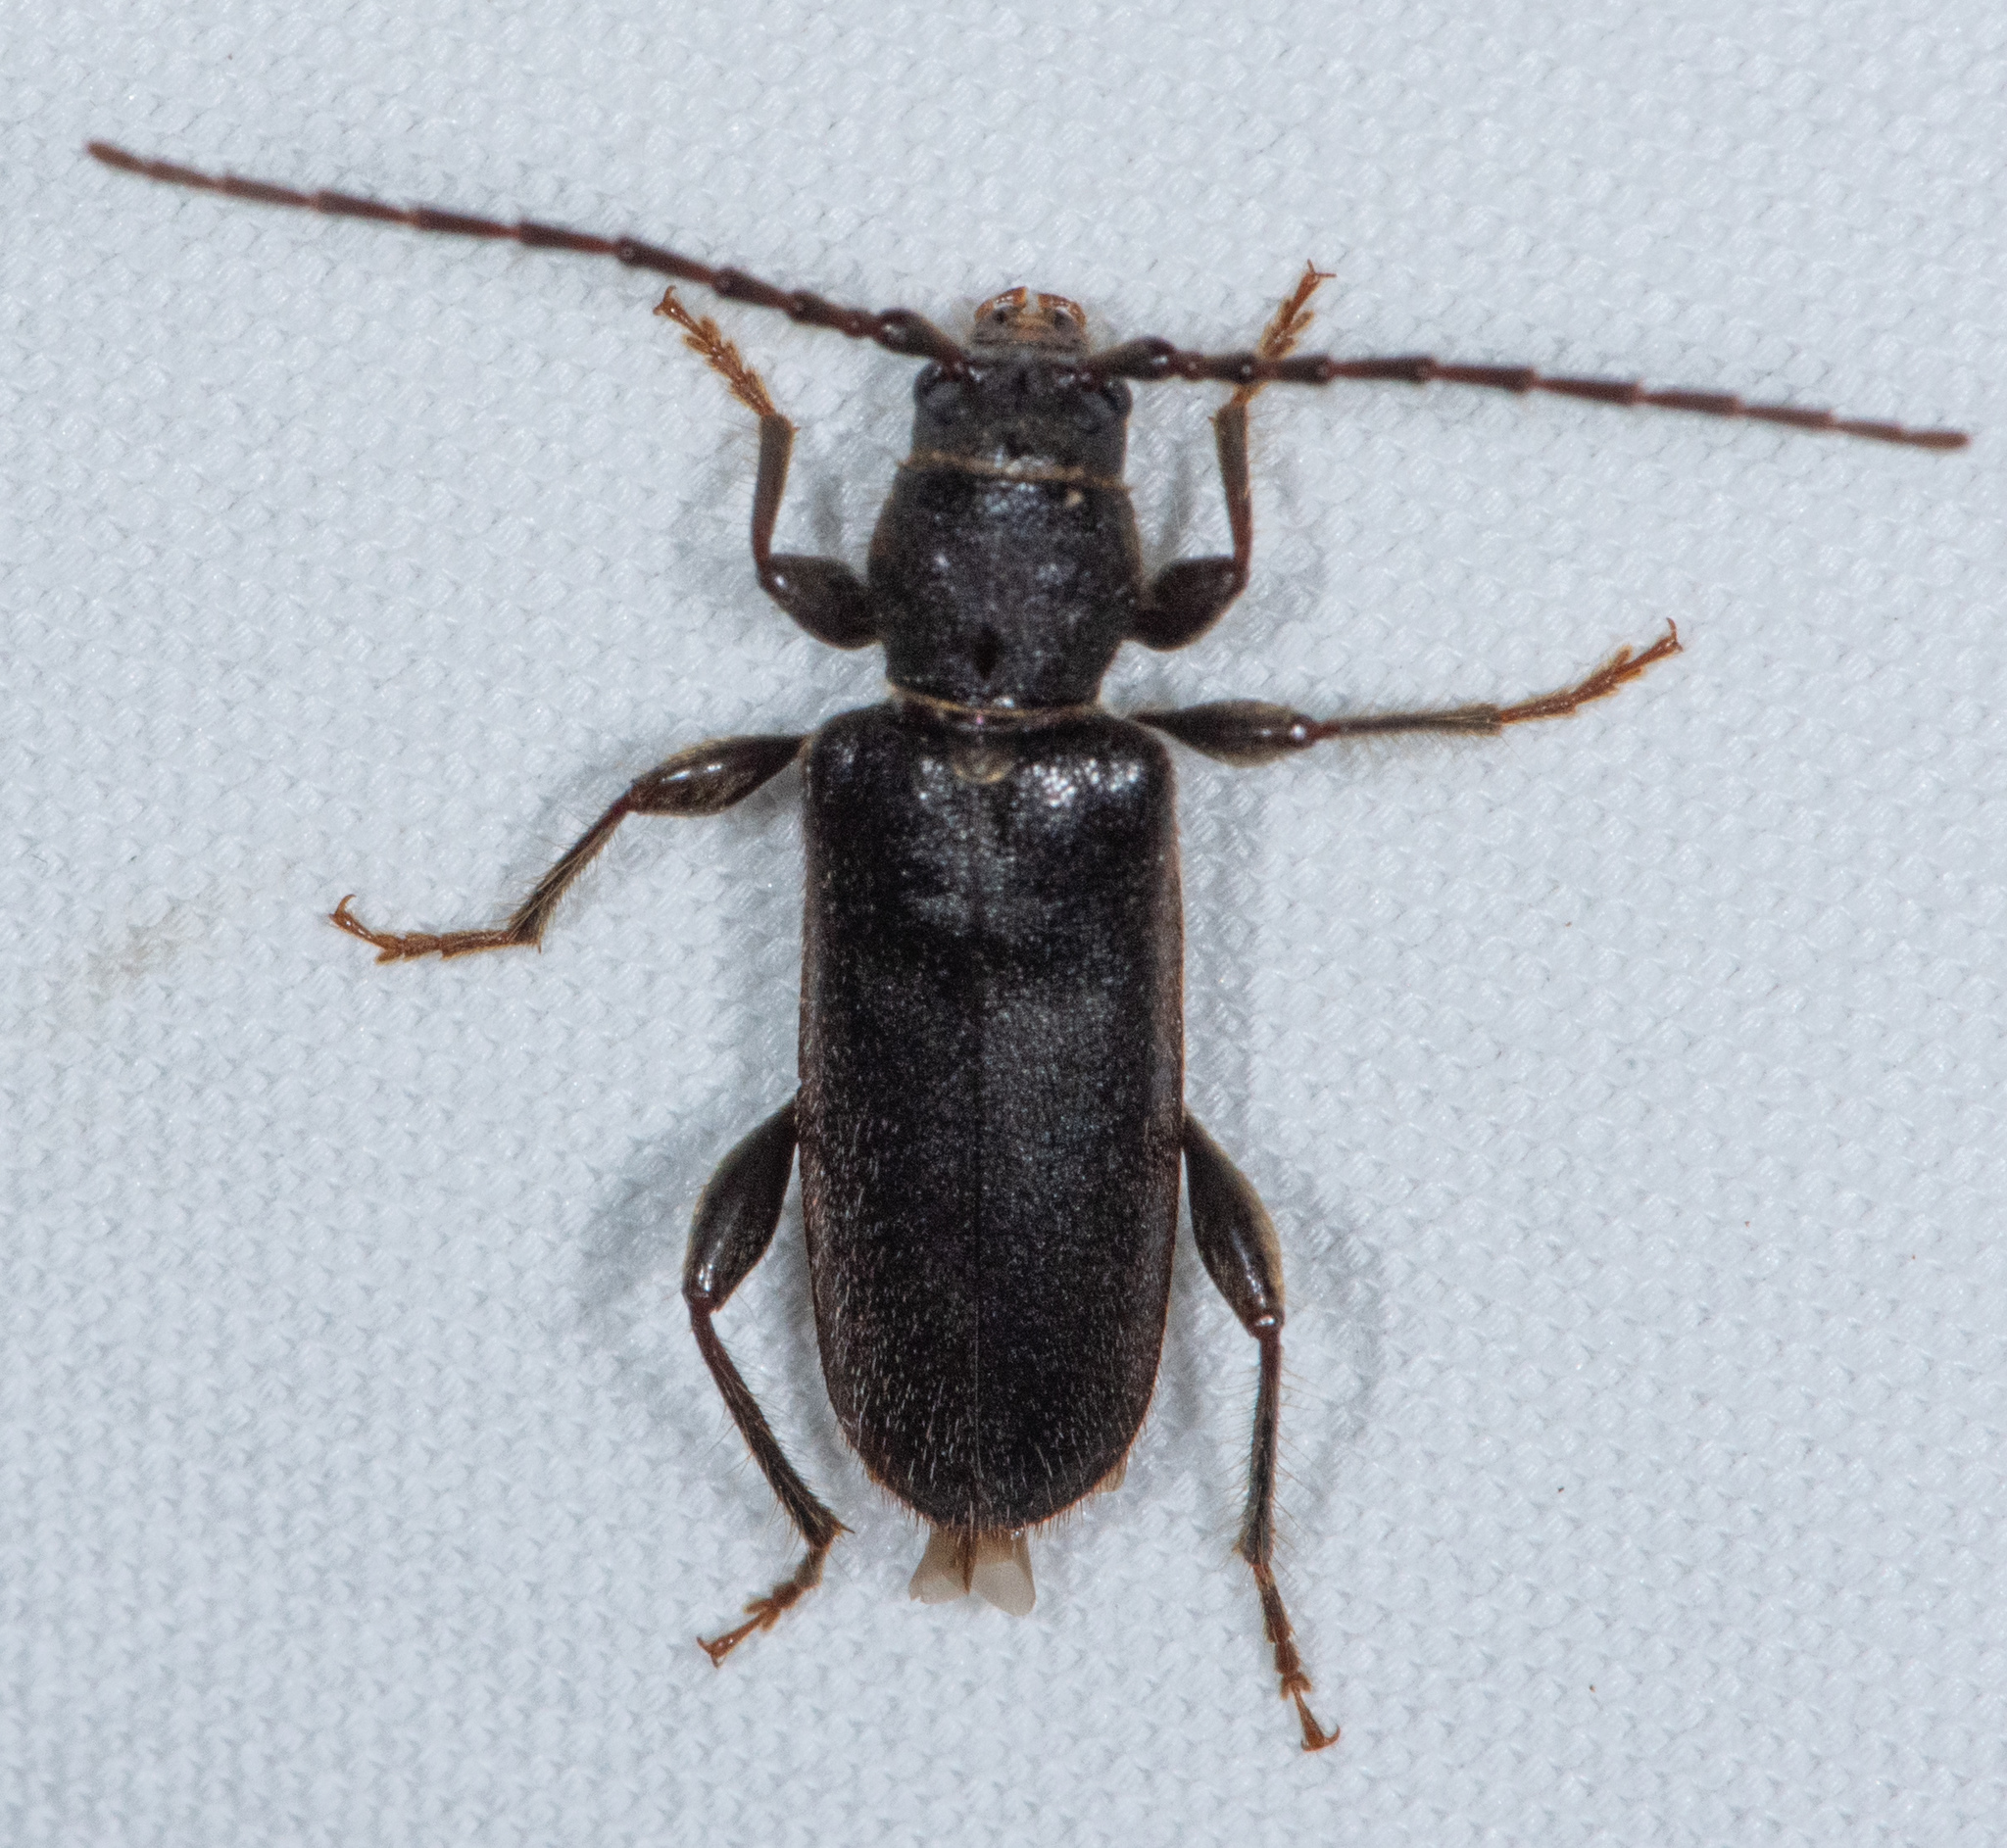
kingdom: Animalia
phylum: Arthropoda
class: Insecta
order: Coleoptera
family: Cerambycidae
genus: Phymatodes
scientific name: Phymatodes grandis
